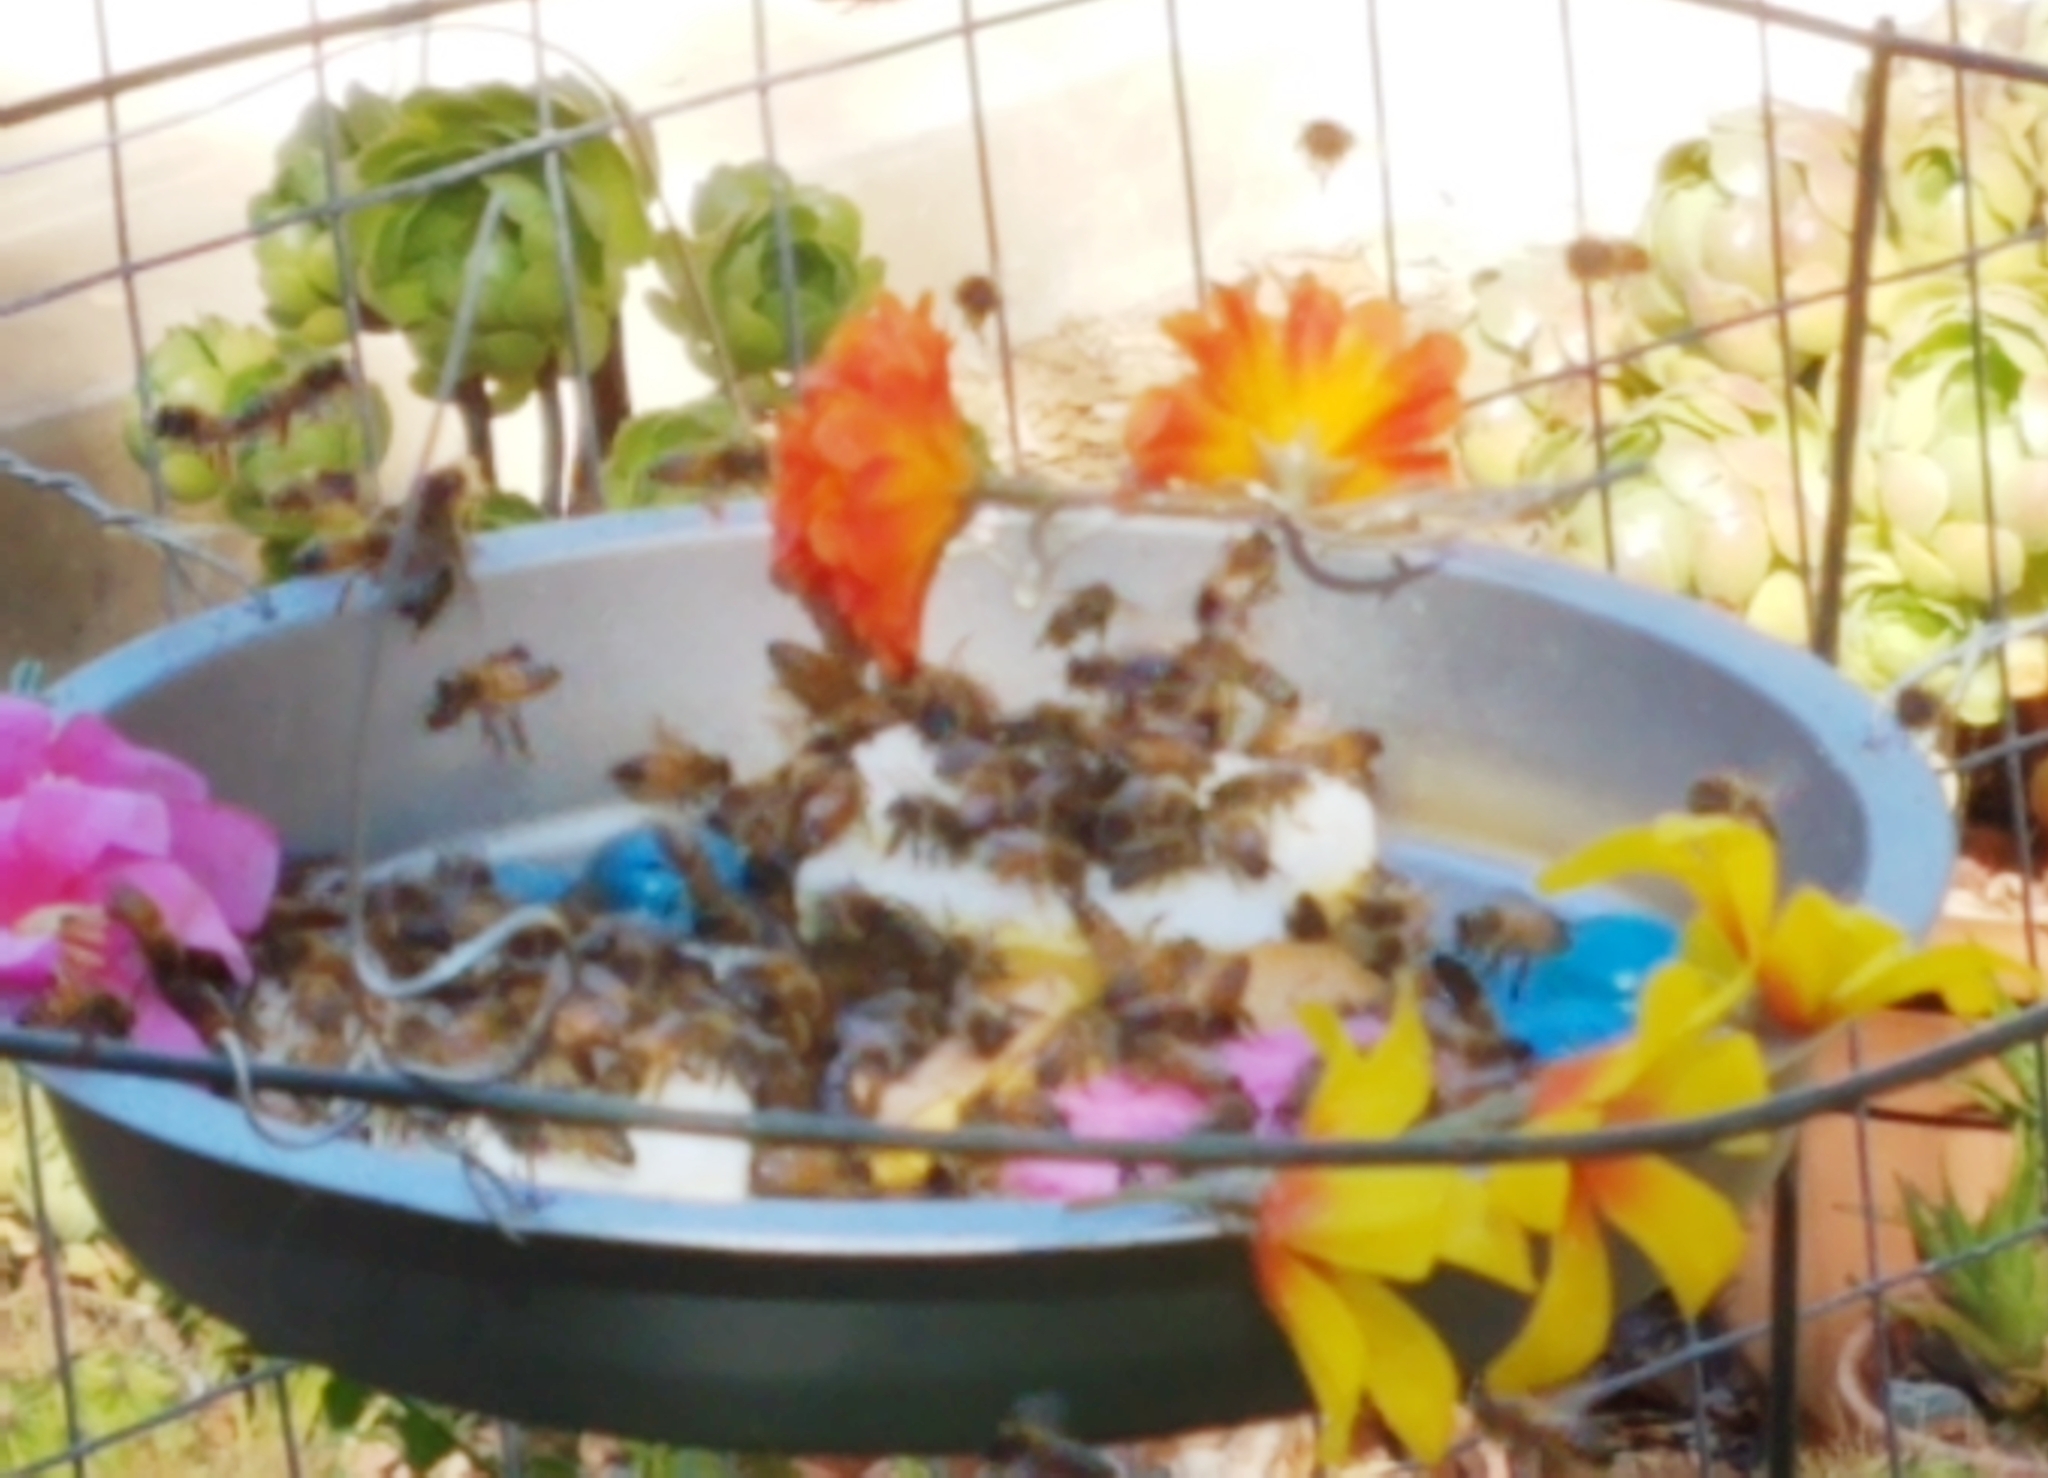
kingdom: Animalia
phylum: Arthropoda
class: Insecta
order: Hymenoptera
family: Apidae
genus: Apis
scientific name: Apis mellifera
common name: Honey bee
